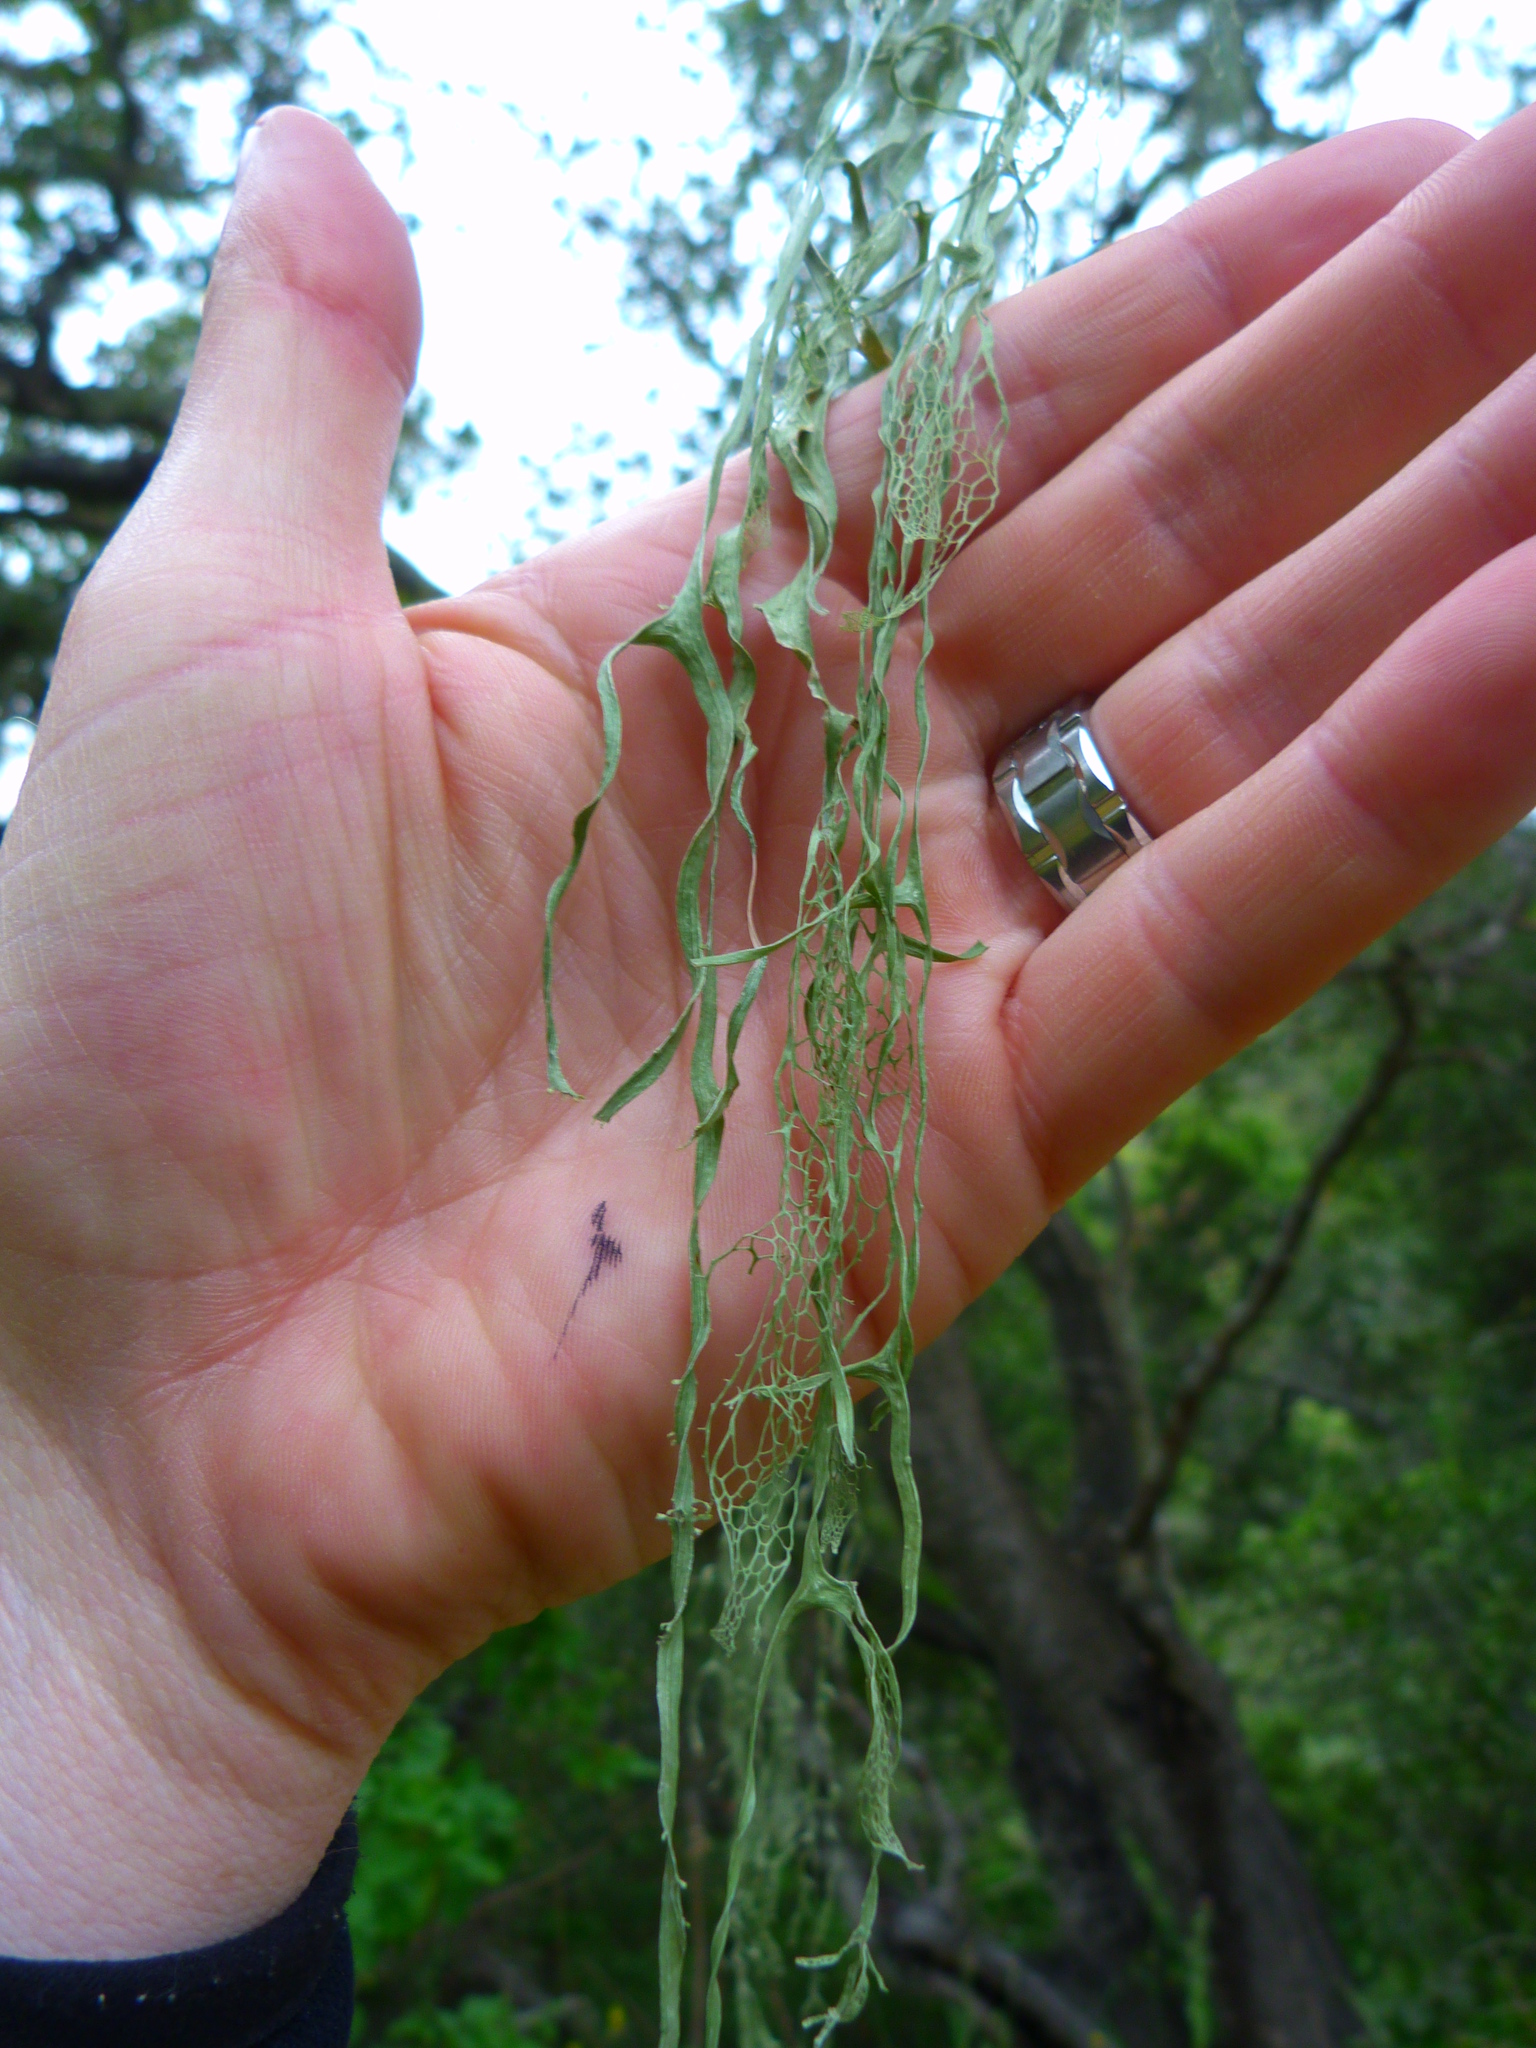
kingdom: Fungi
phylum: Ascomycota
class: Lecanoromycetes
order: Lecanorales
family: Ramalinaceae
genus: Ramalina
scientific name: Ramalina menziesii
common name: Lace lichen
